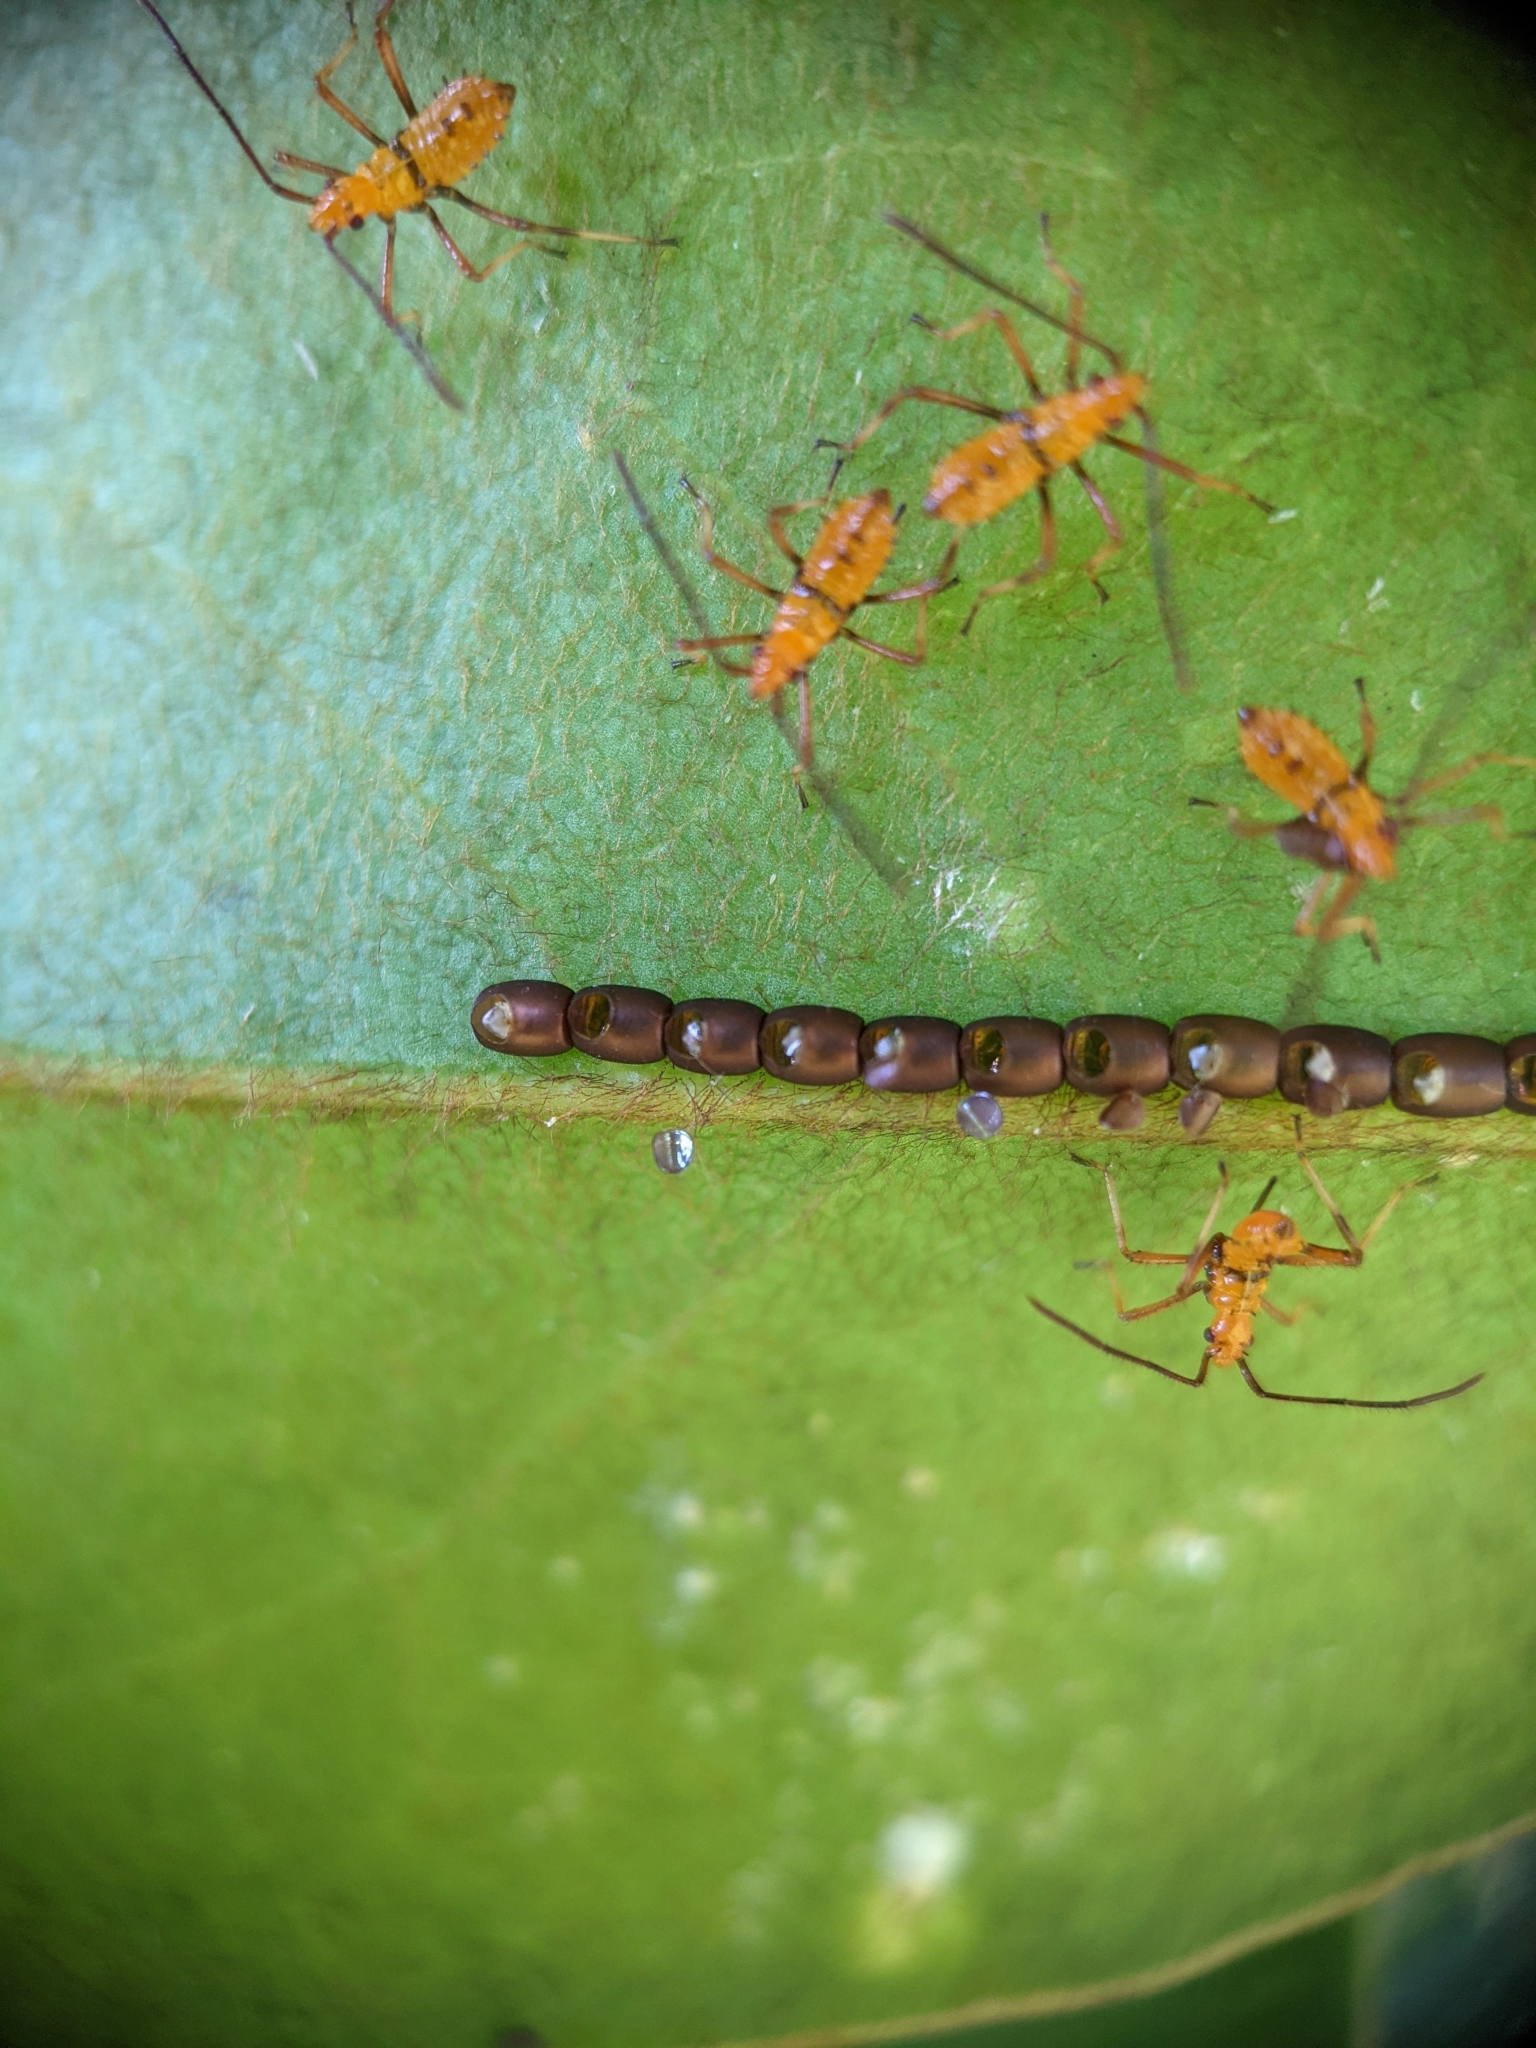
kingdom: Animalia
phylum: Arthropoda
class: Insecta
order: Hemiptera
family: Coreidae
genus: Leptoglossus
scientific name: Leptoglossus fulvicornis
